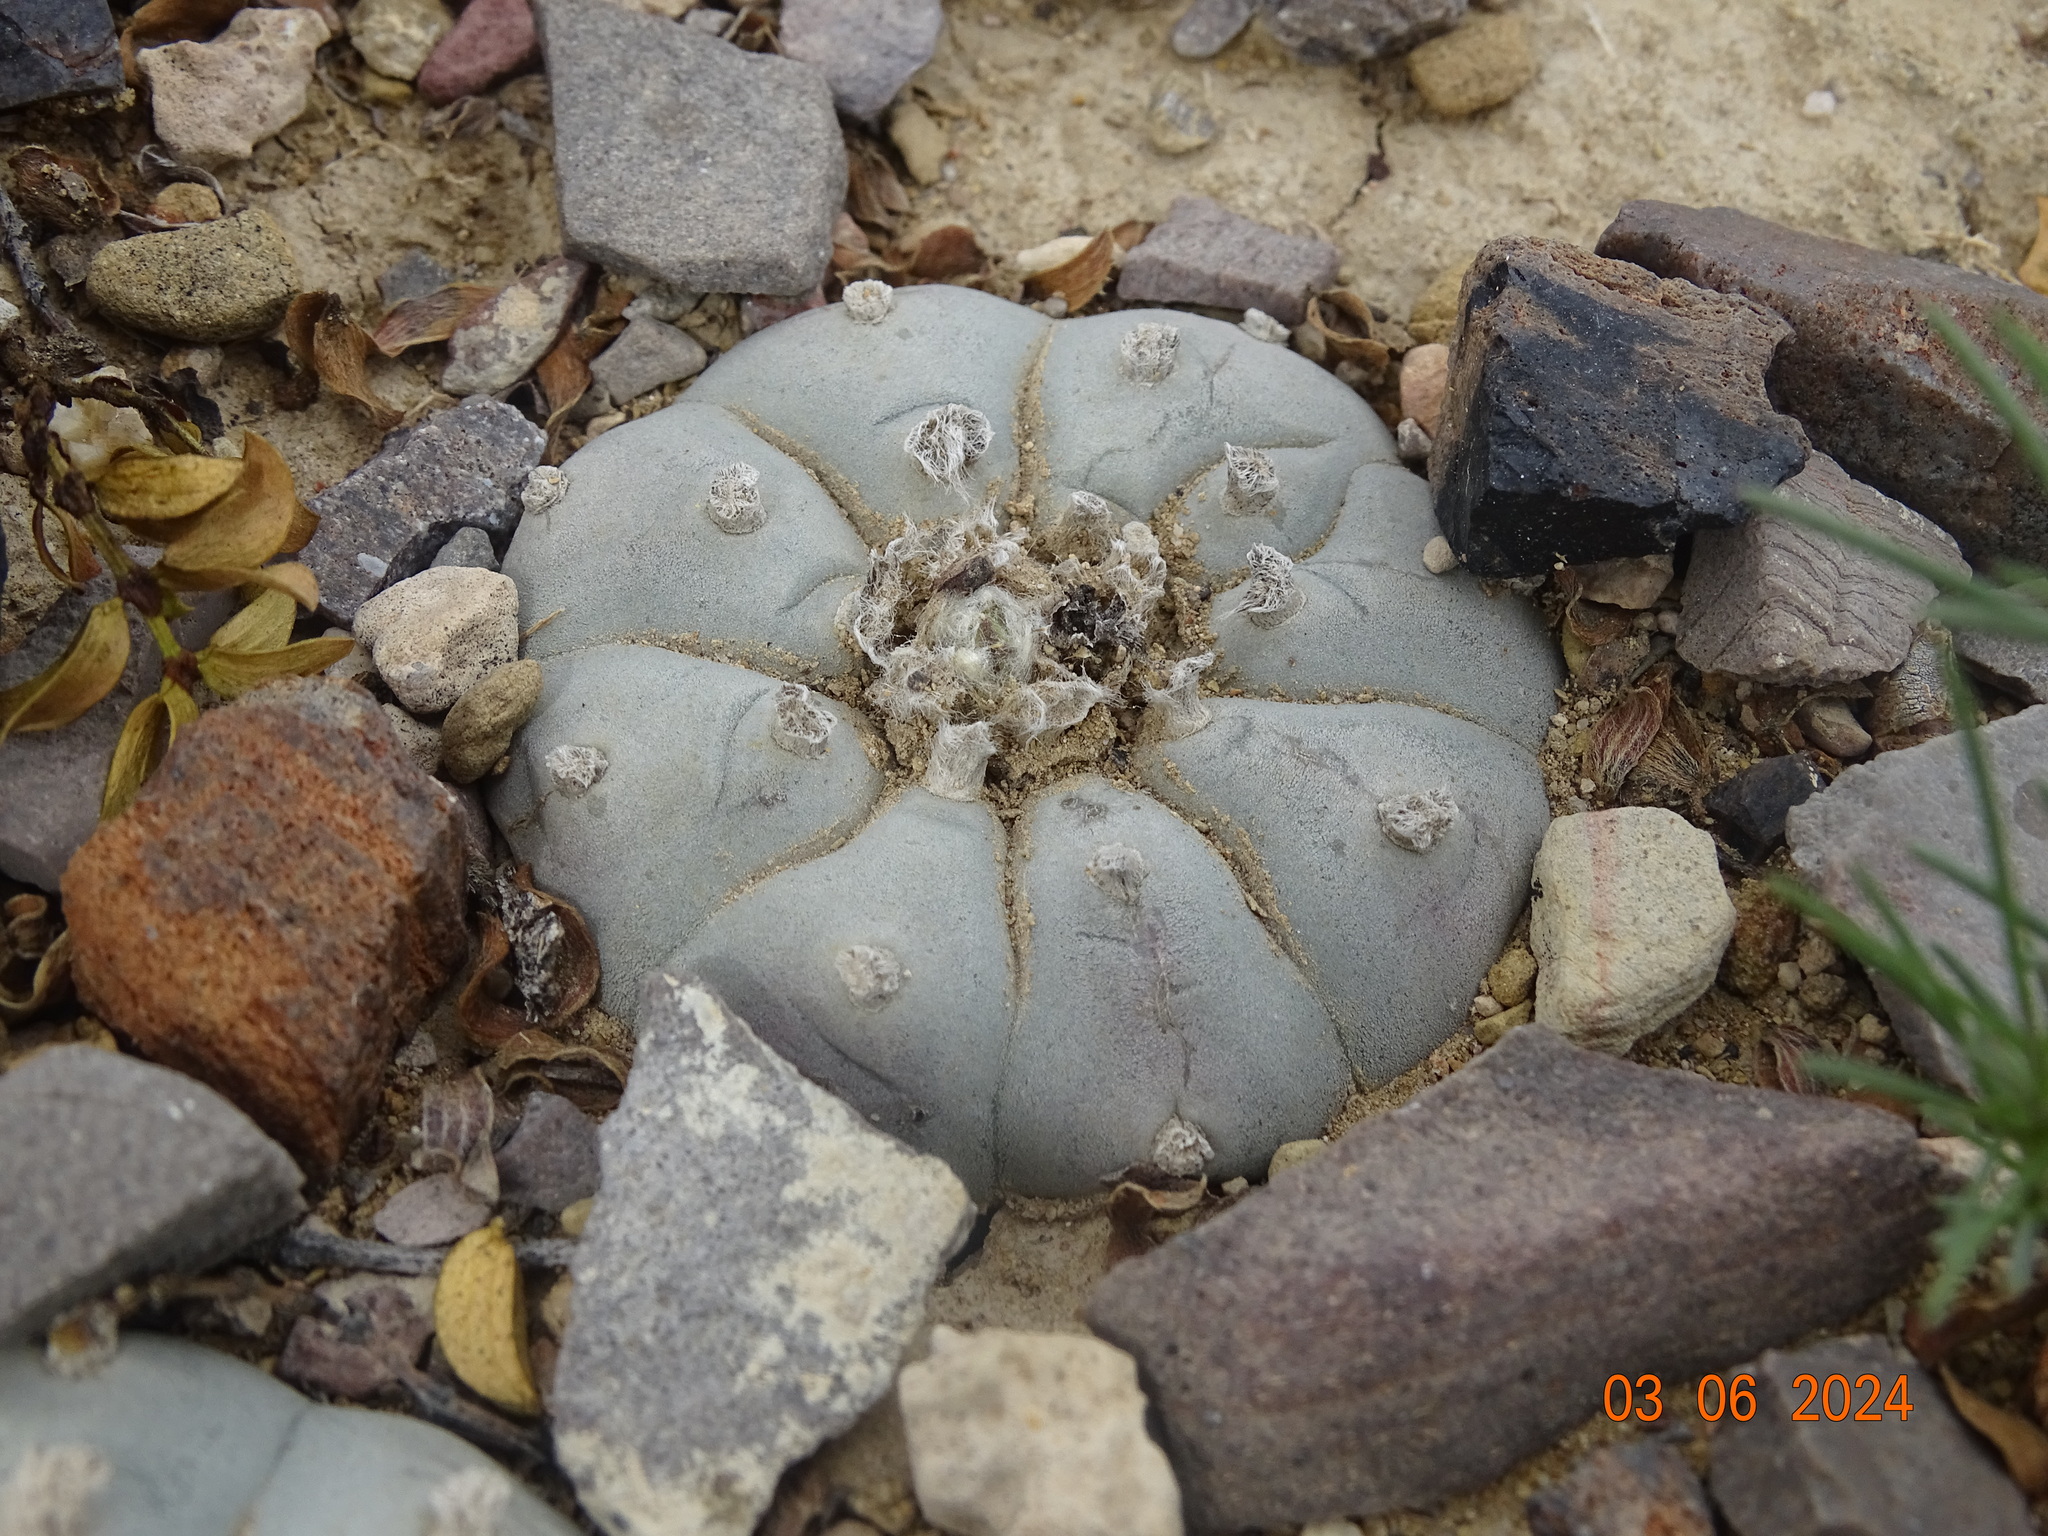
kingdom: Plantae
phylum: Tracheophyta
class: Magnoliopsida
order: Caryophyllales
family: Cactaceae
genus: Lophophora
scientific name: Lophophora williamsii
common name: Indian-dope
